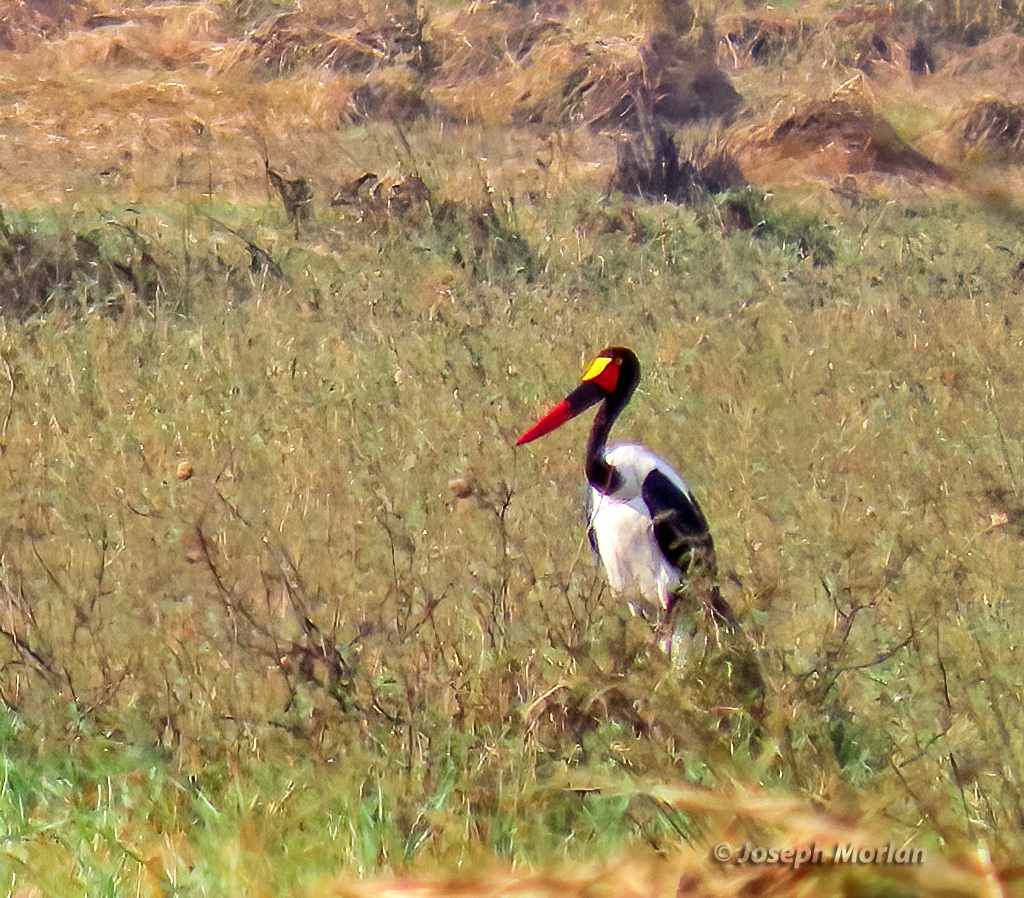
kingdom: Animalia
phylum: Chordata
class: Aves
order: Ciconiiformes
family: Ciconiidae
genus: Ephippiorhynchus
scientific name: Ephippiorhynchus senegalensis
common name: Saddle-billed stork
